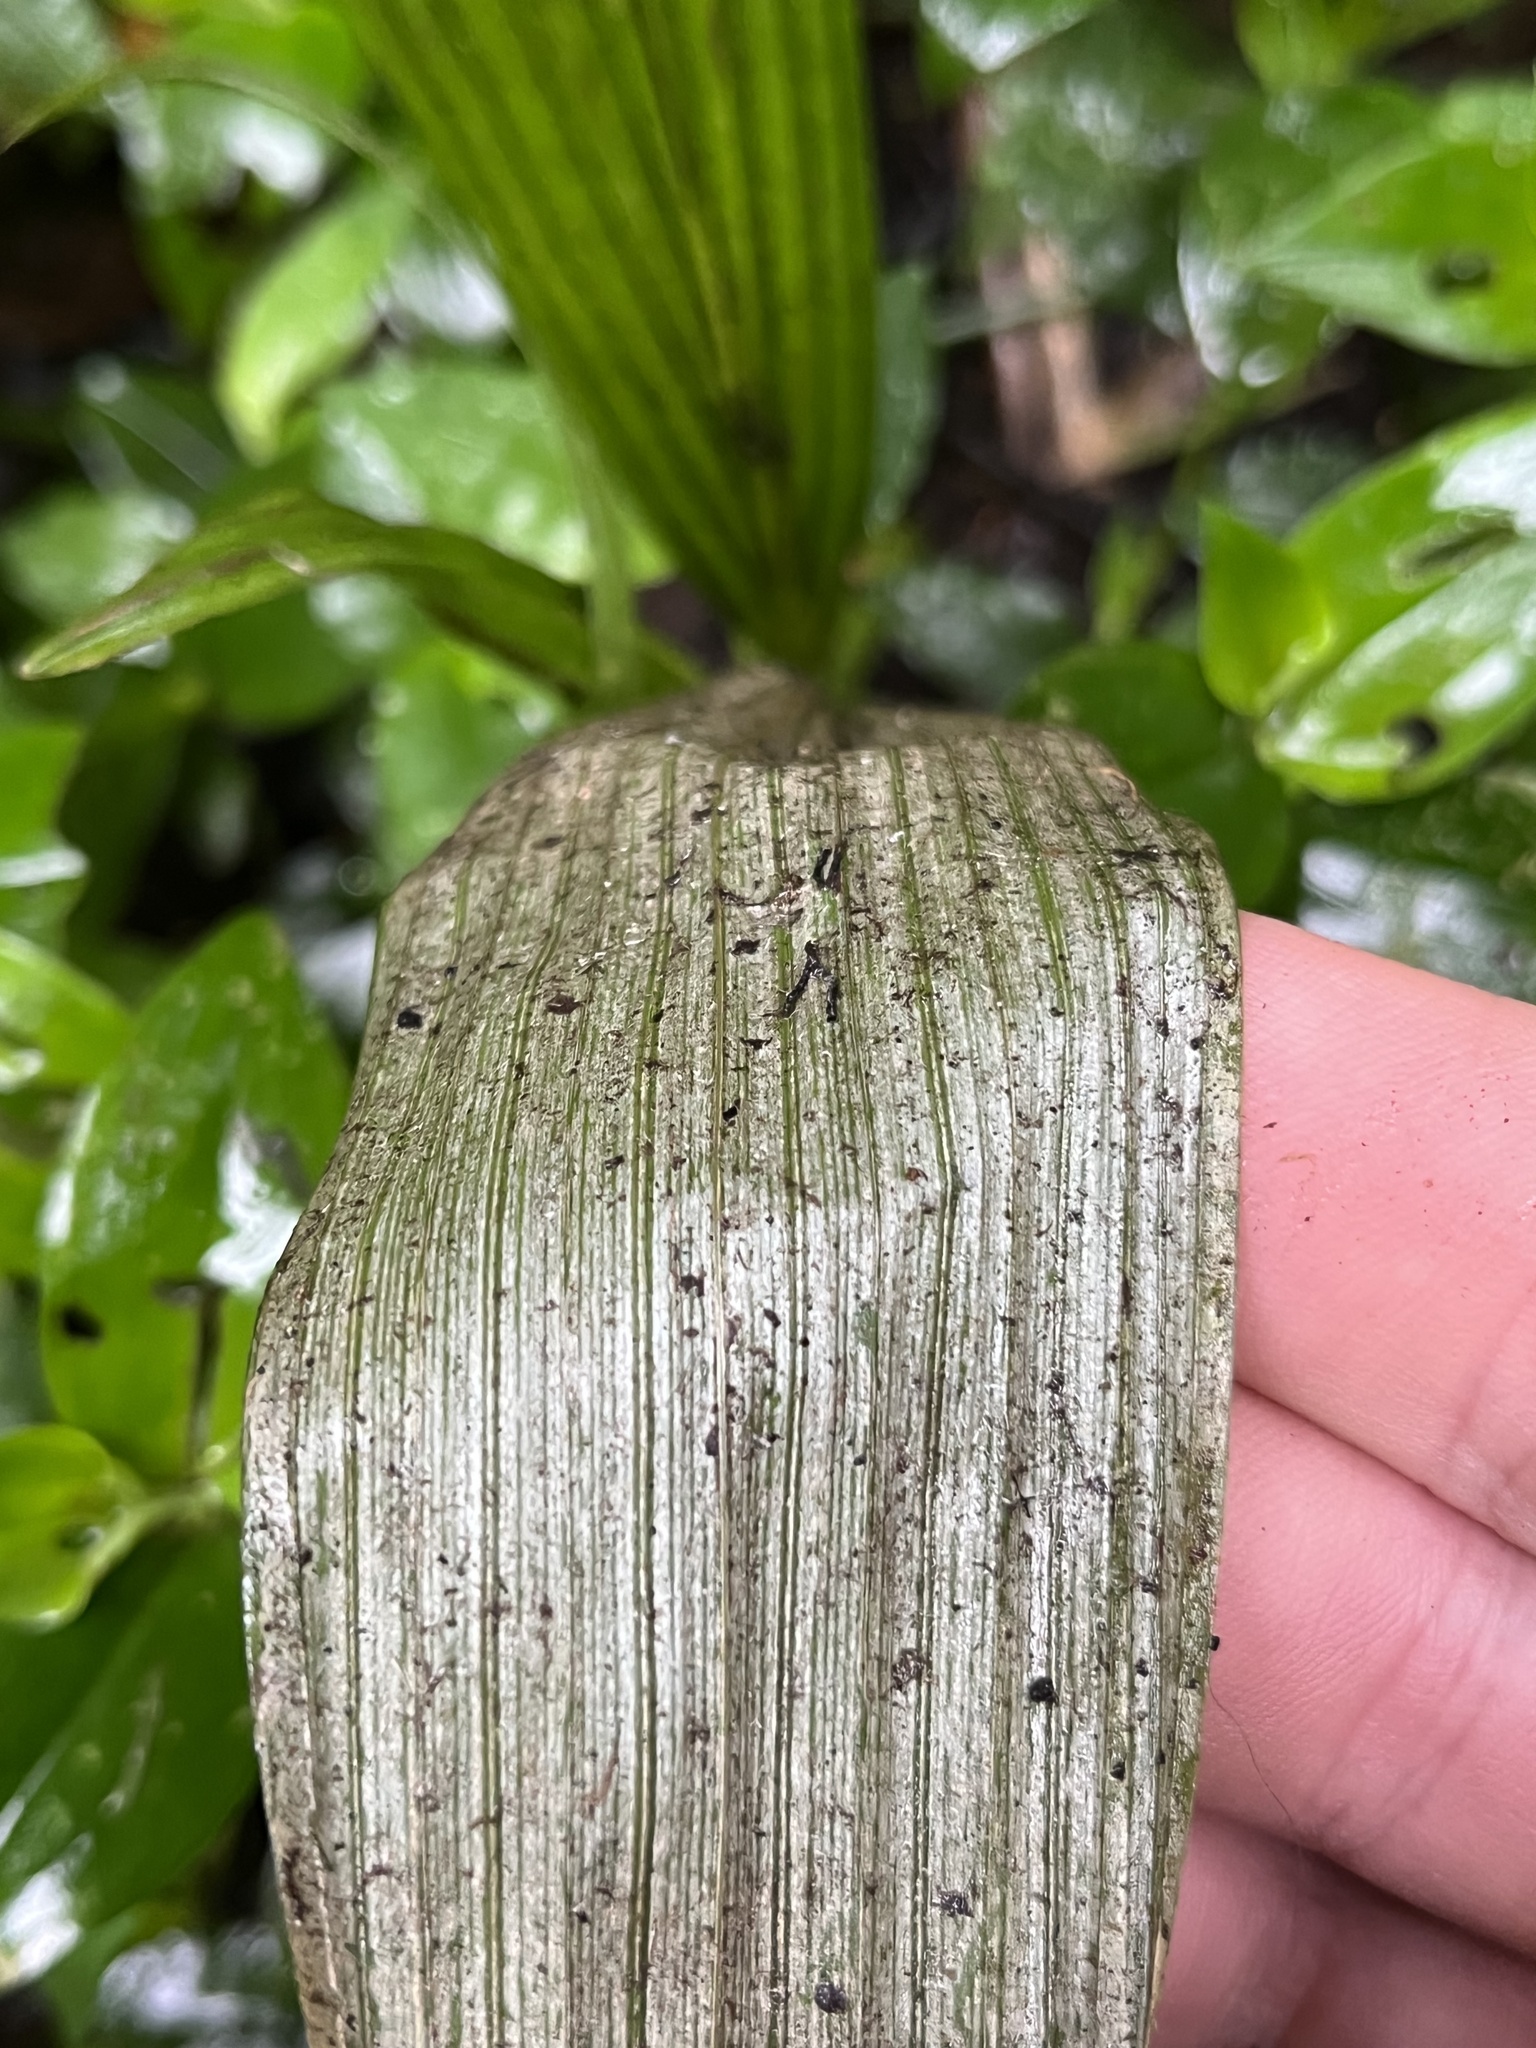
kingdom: Plantae
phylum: Tracheophyta
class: Liliopsida
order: Arecales
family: Arecaceae
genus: Ceroxylon
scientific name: Ceroxylon sasaimae
